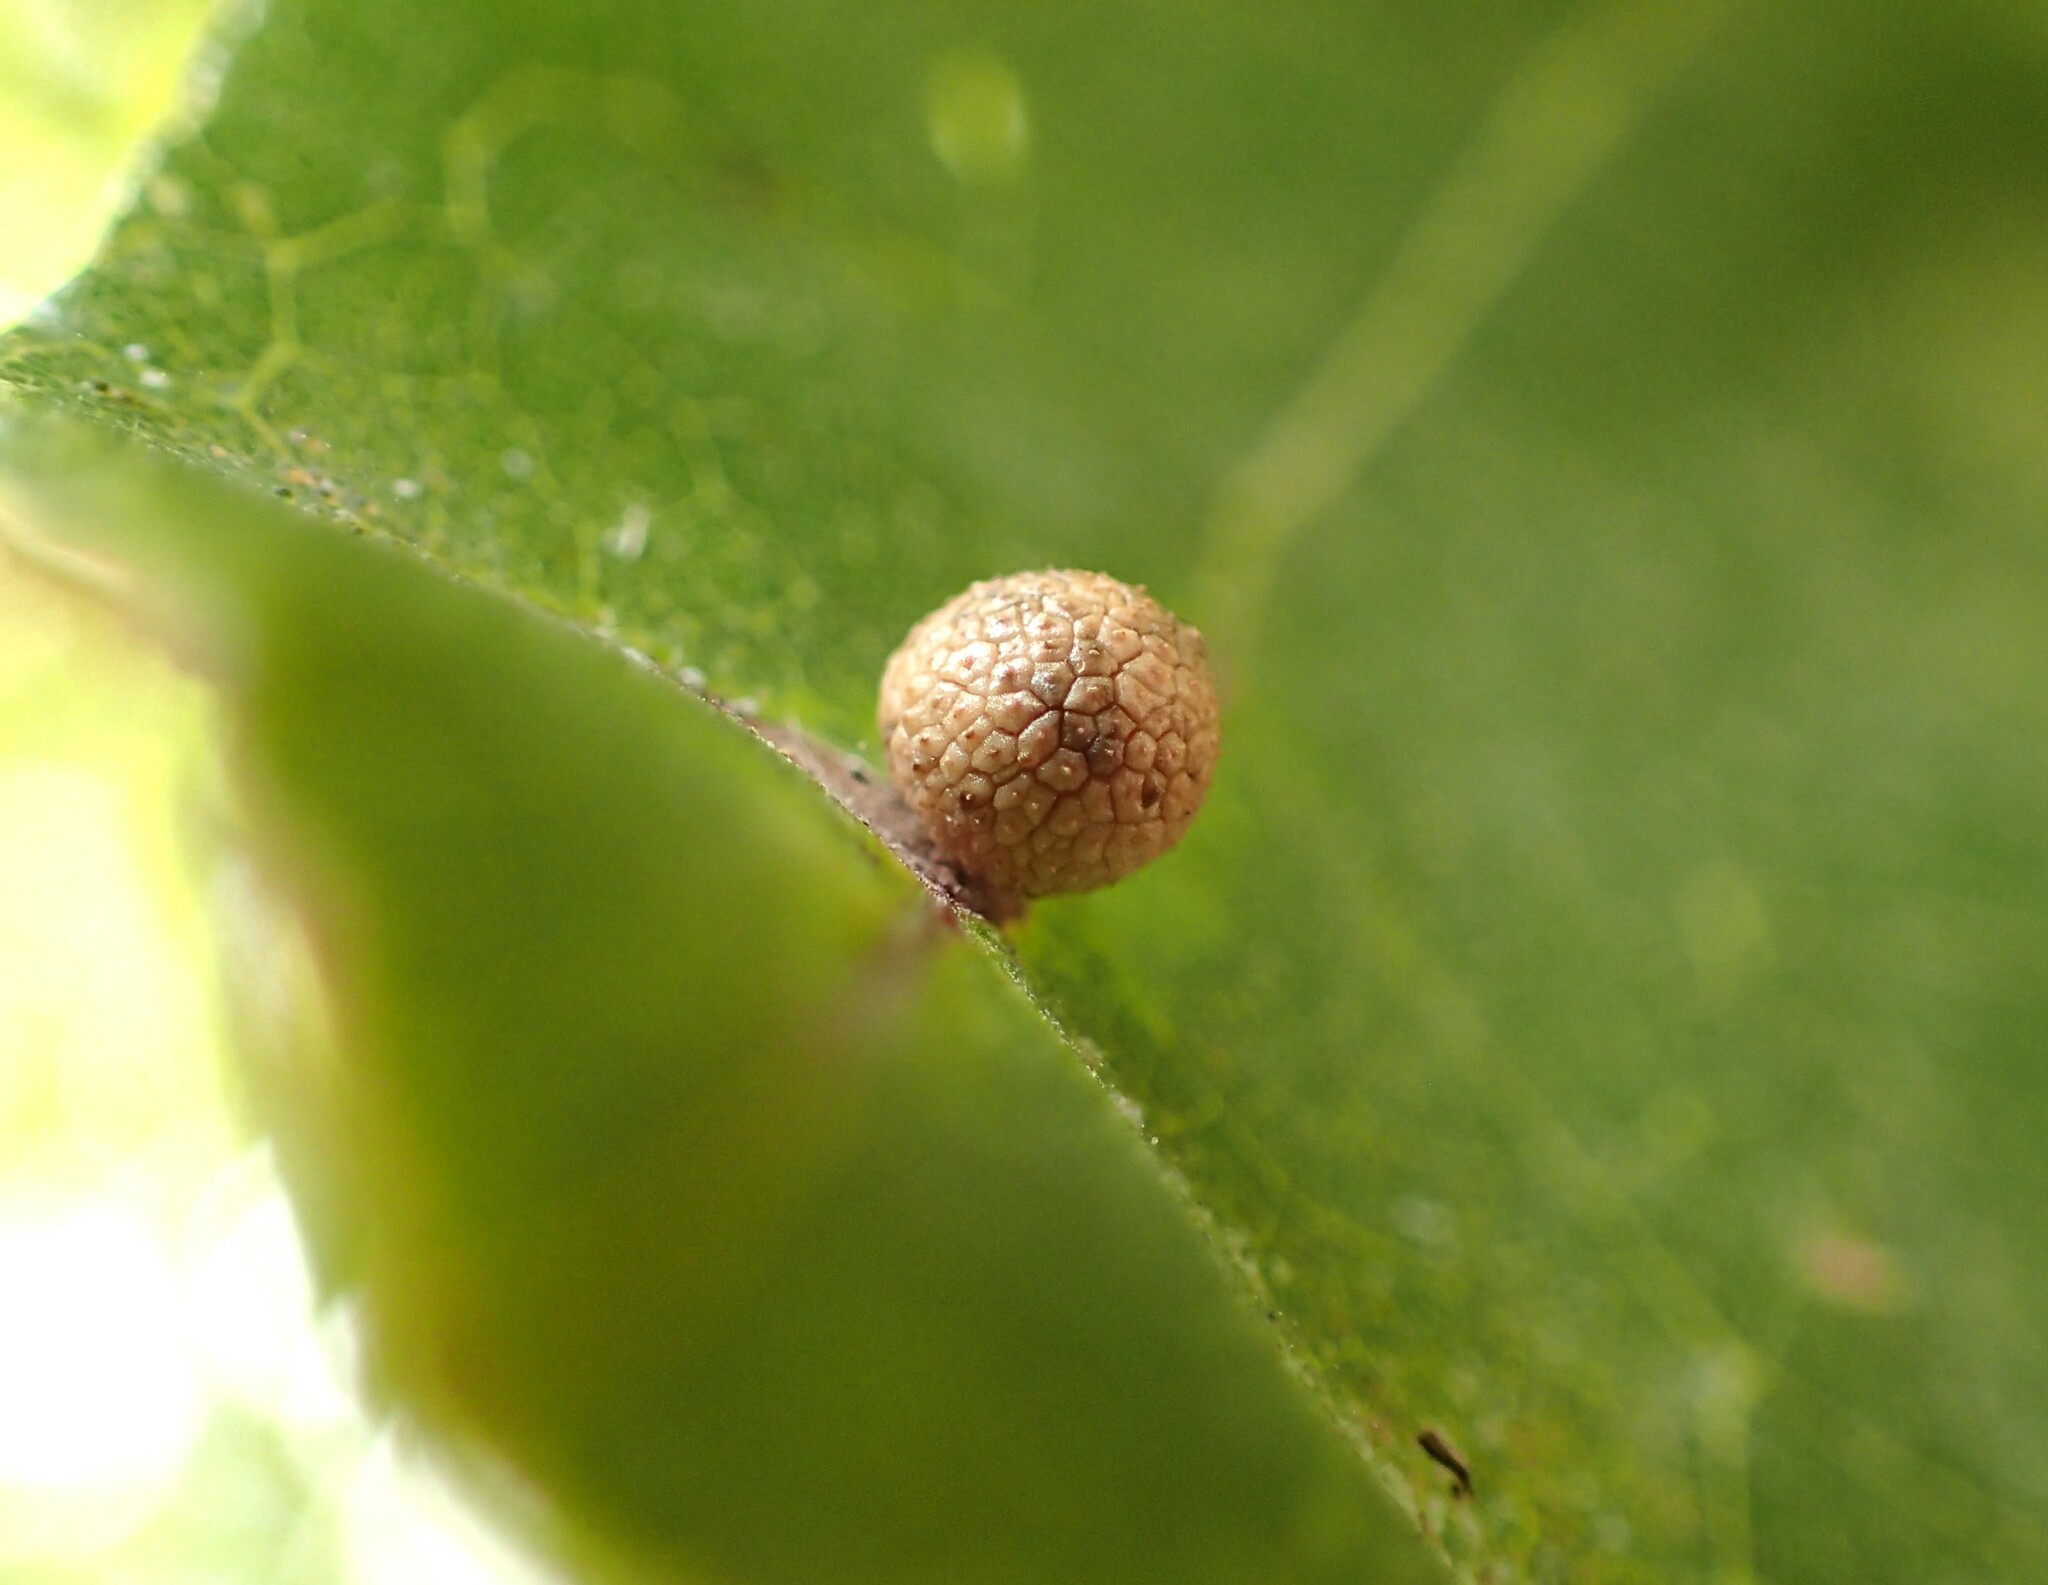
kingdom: Animalia
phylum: Arthropoda
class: Insecta
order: Hymenoptera
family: Cynipidae
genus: Acraspis
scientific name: Acraspis quercushirta
